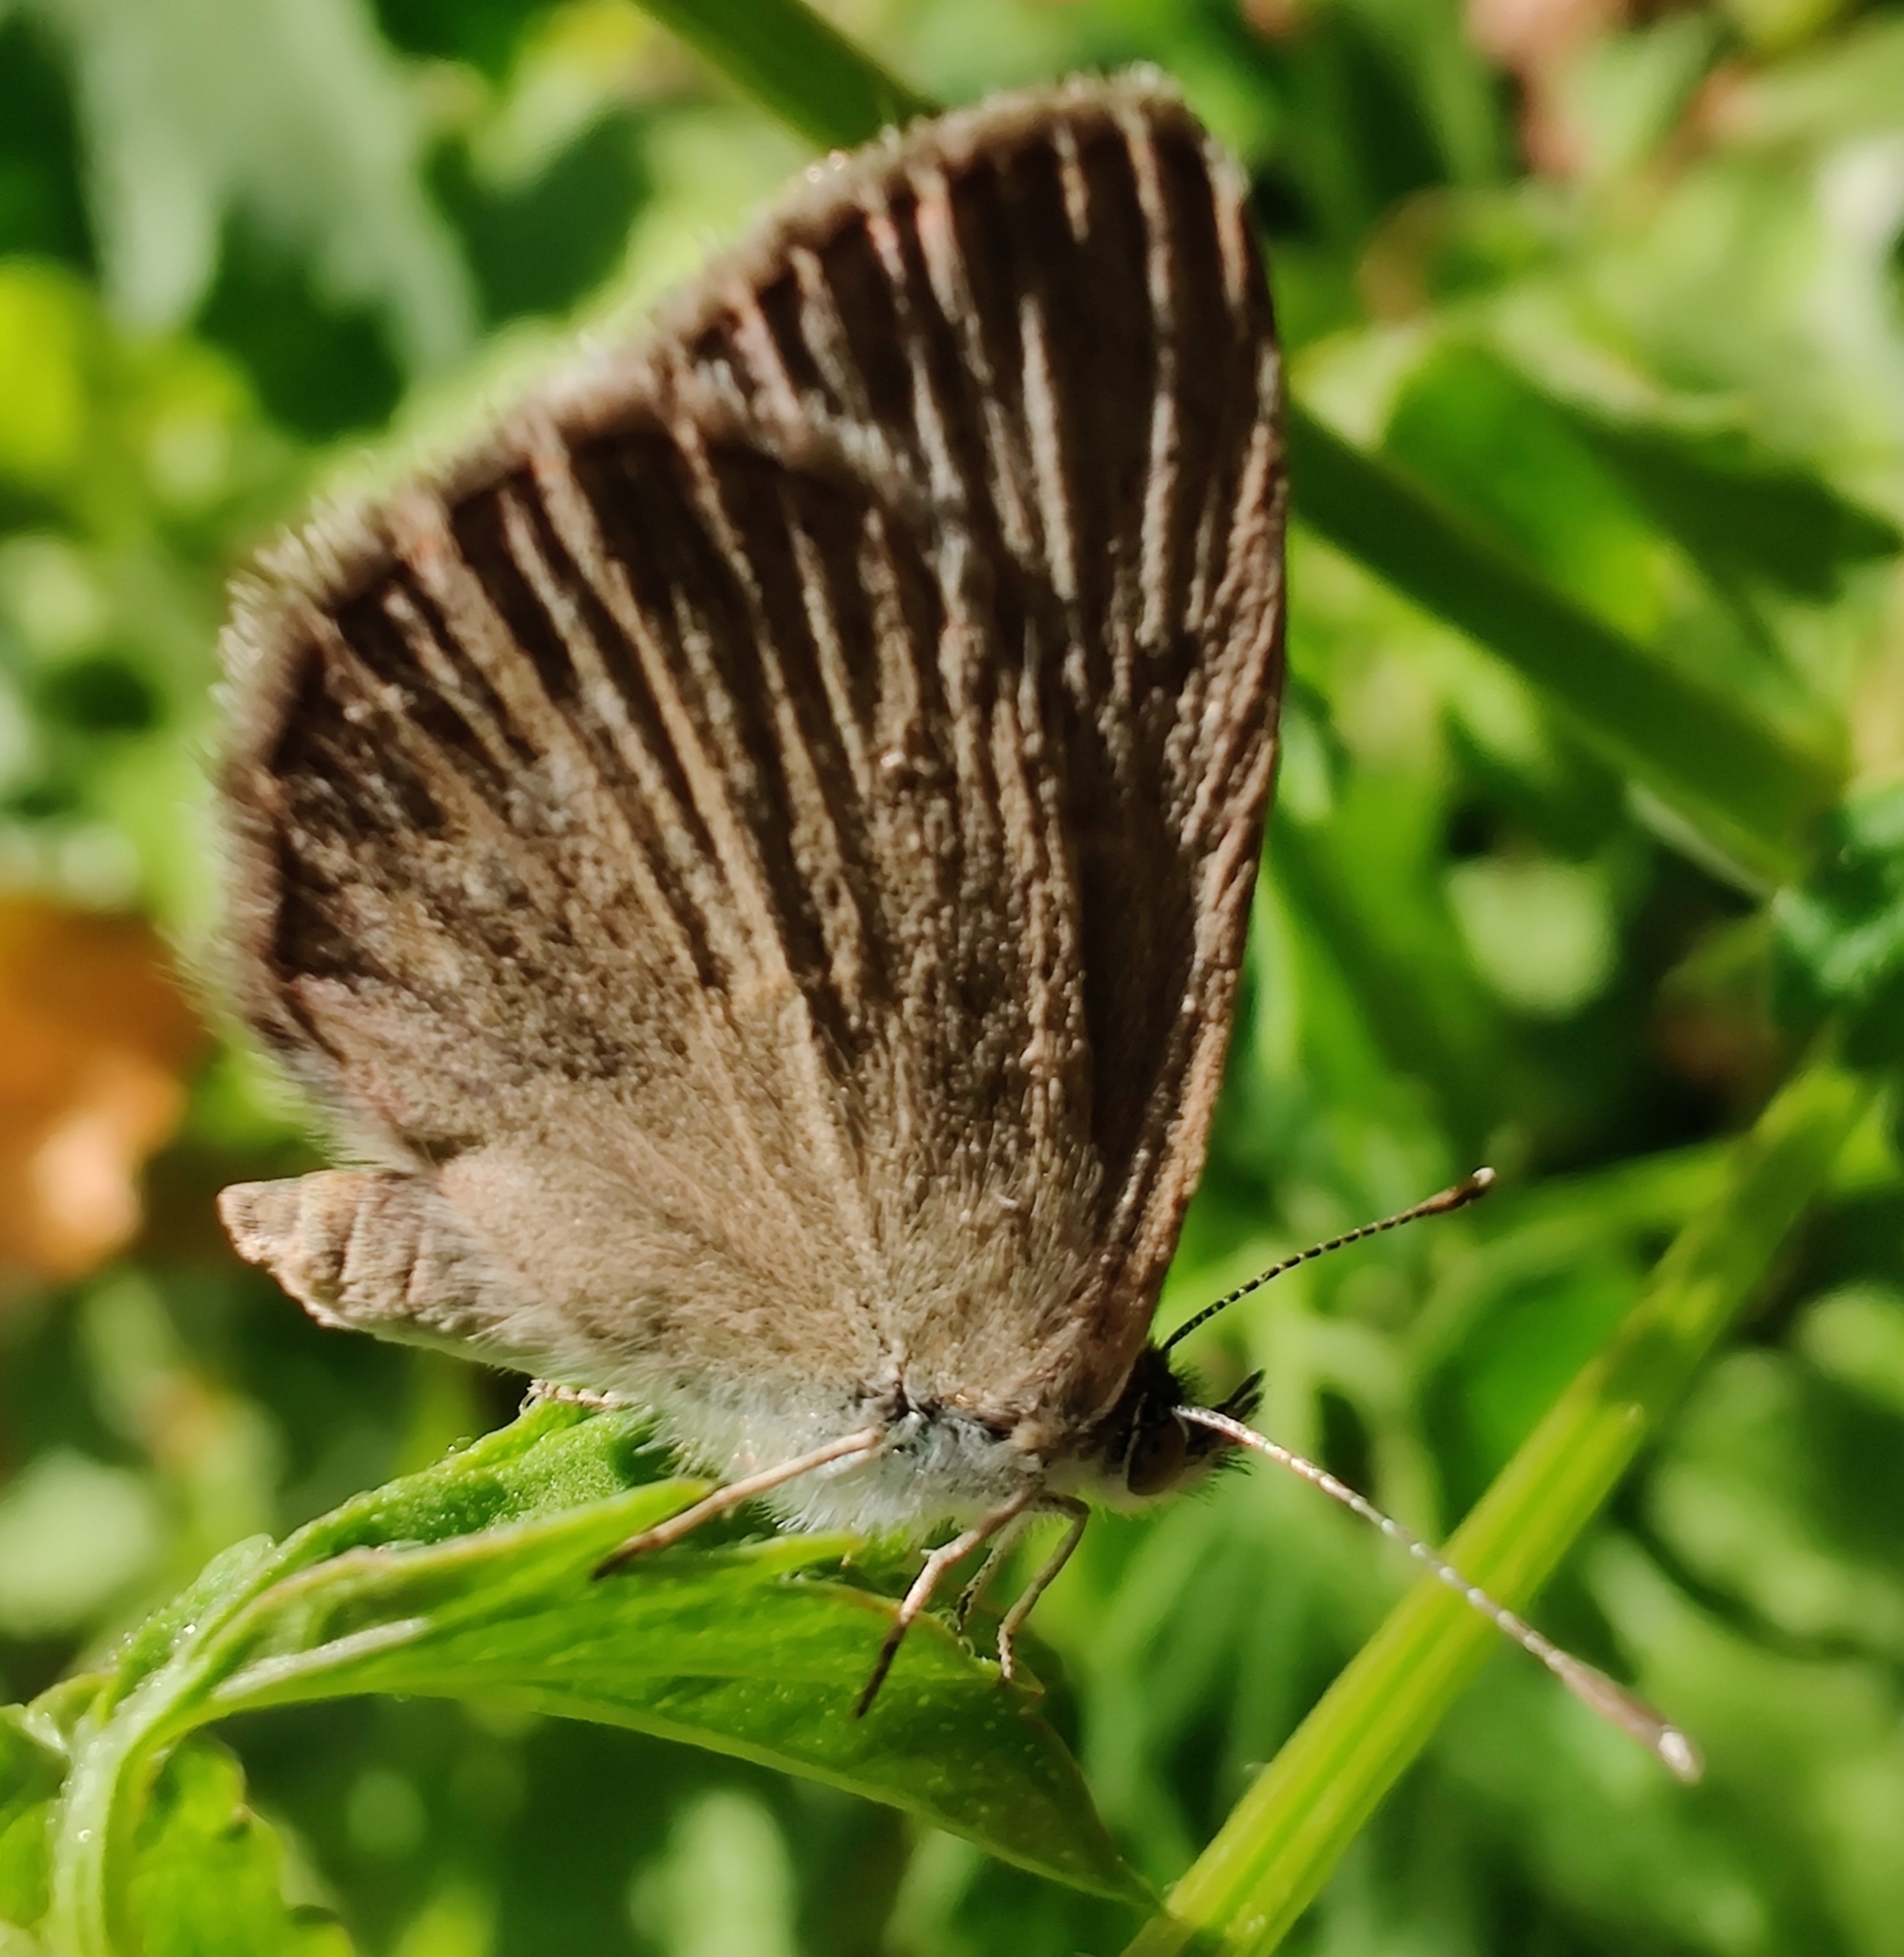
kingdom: Animalia
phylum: Arthropoda
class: Insecta
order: Lepidoptera
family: Lycaenidae
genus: Zizina
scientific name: Zizina otis
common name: Lesser grass blue
